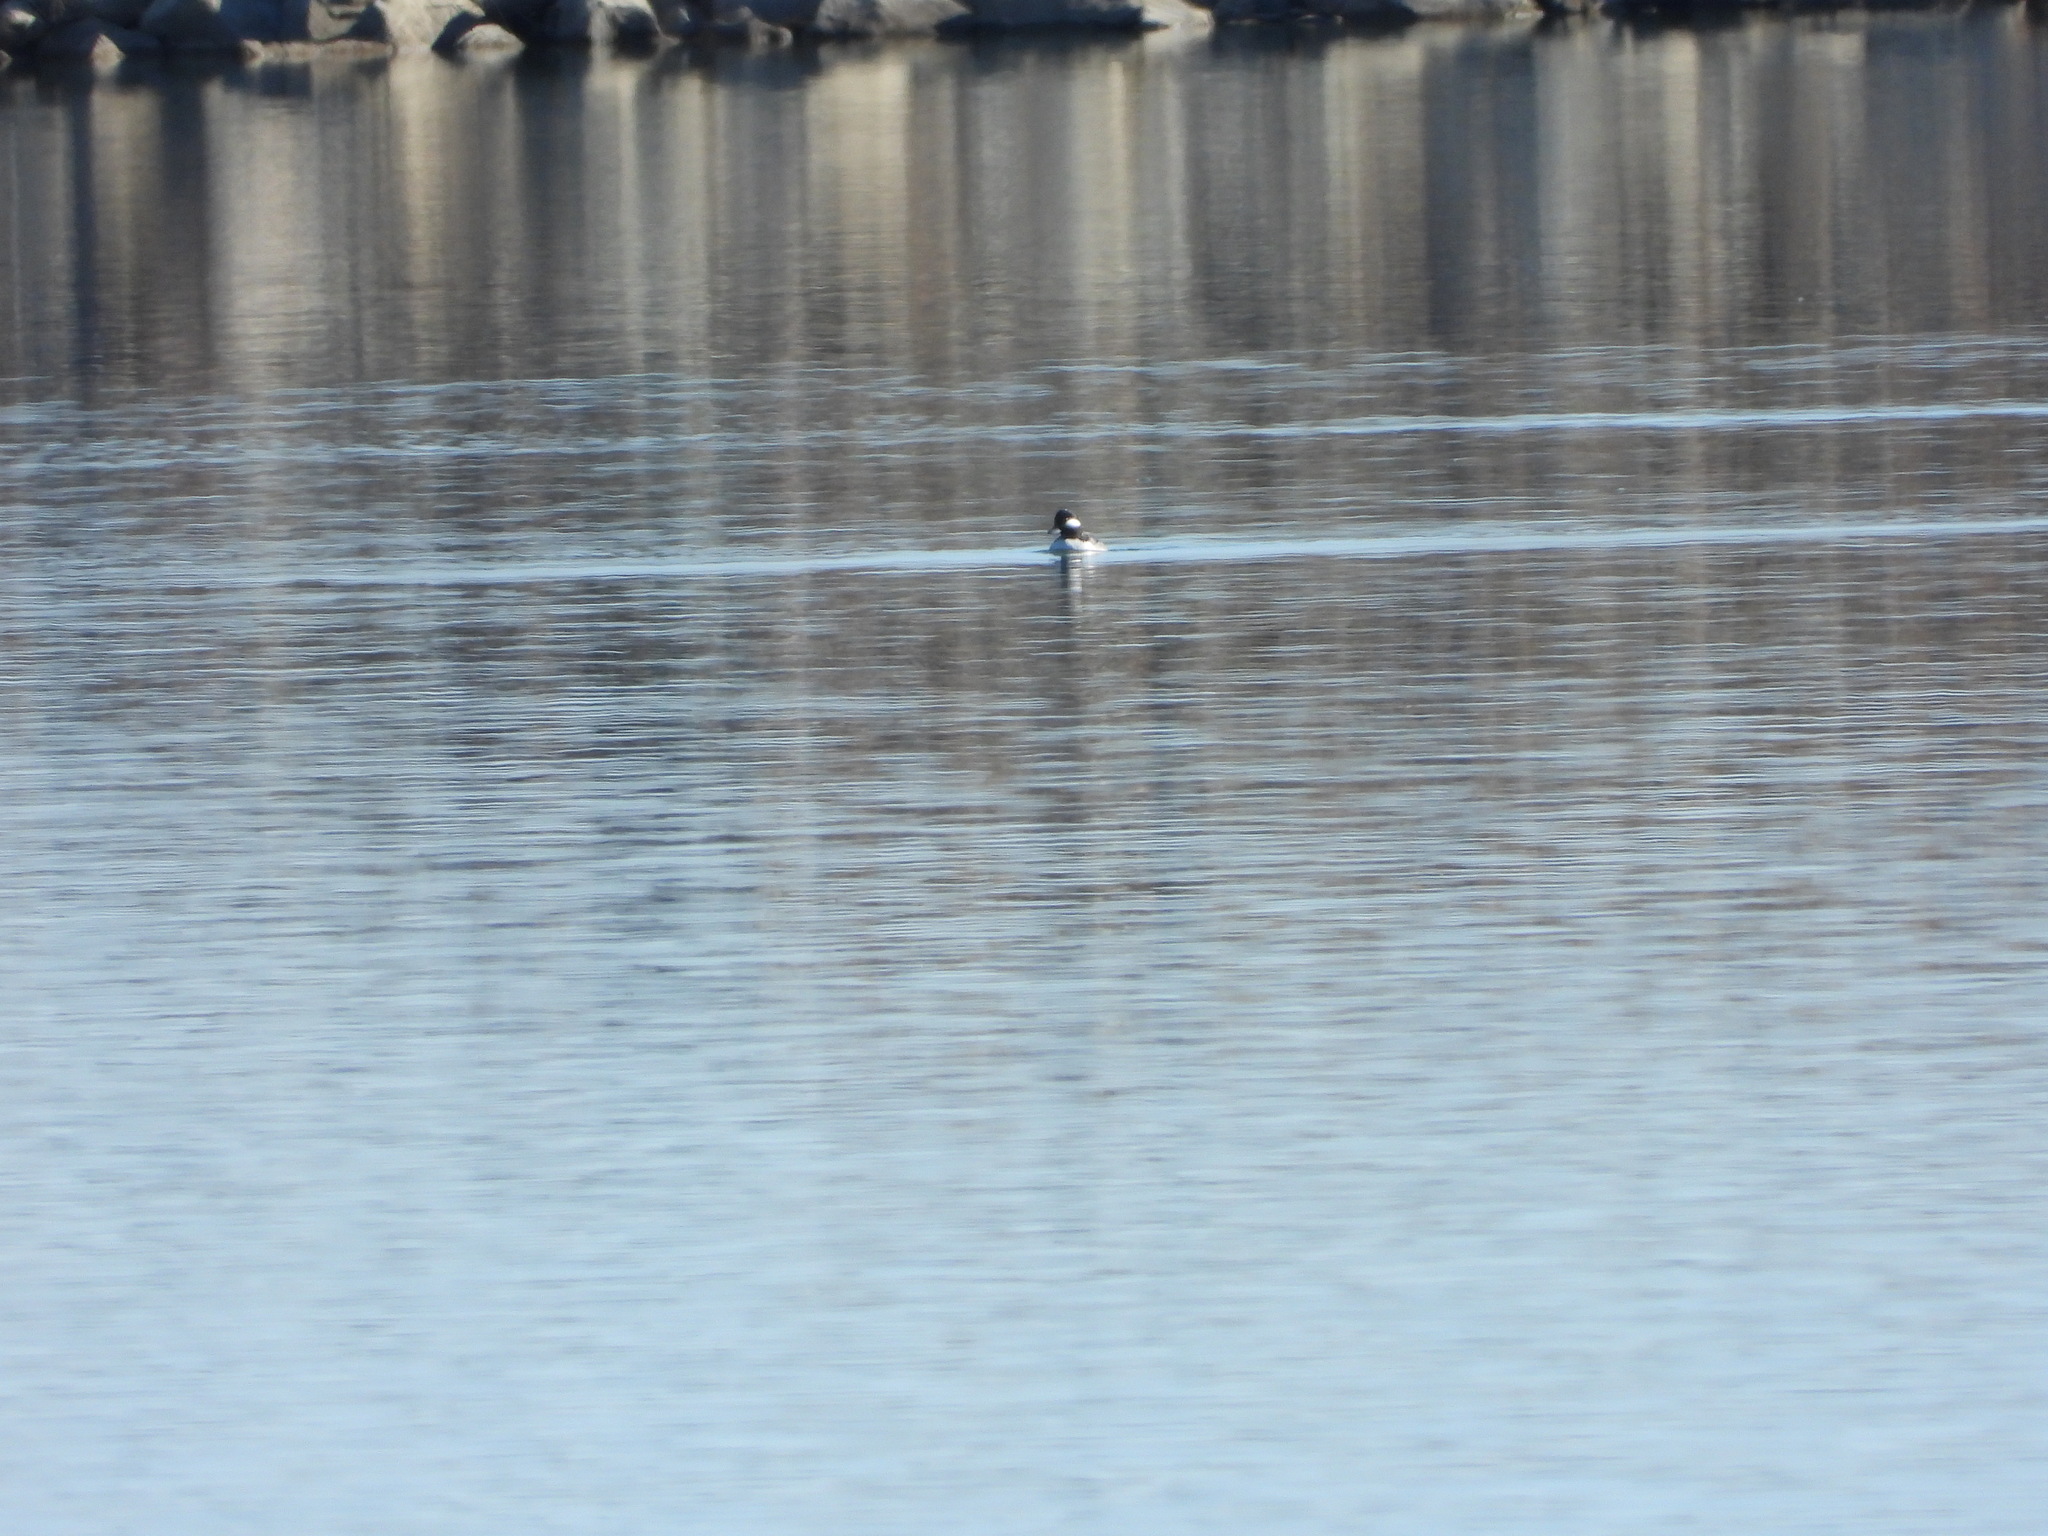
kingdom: Animalia
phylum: Chordata
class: Aves
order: Anseriformes
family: Anatidae
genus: Bucephala
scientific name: Bucephala albeola
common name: Bufflehead
